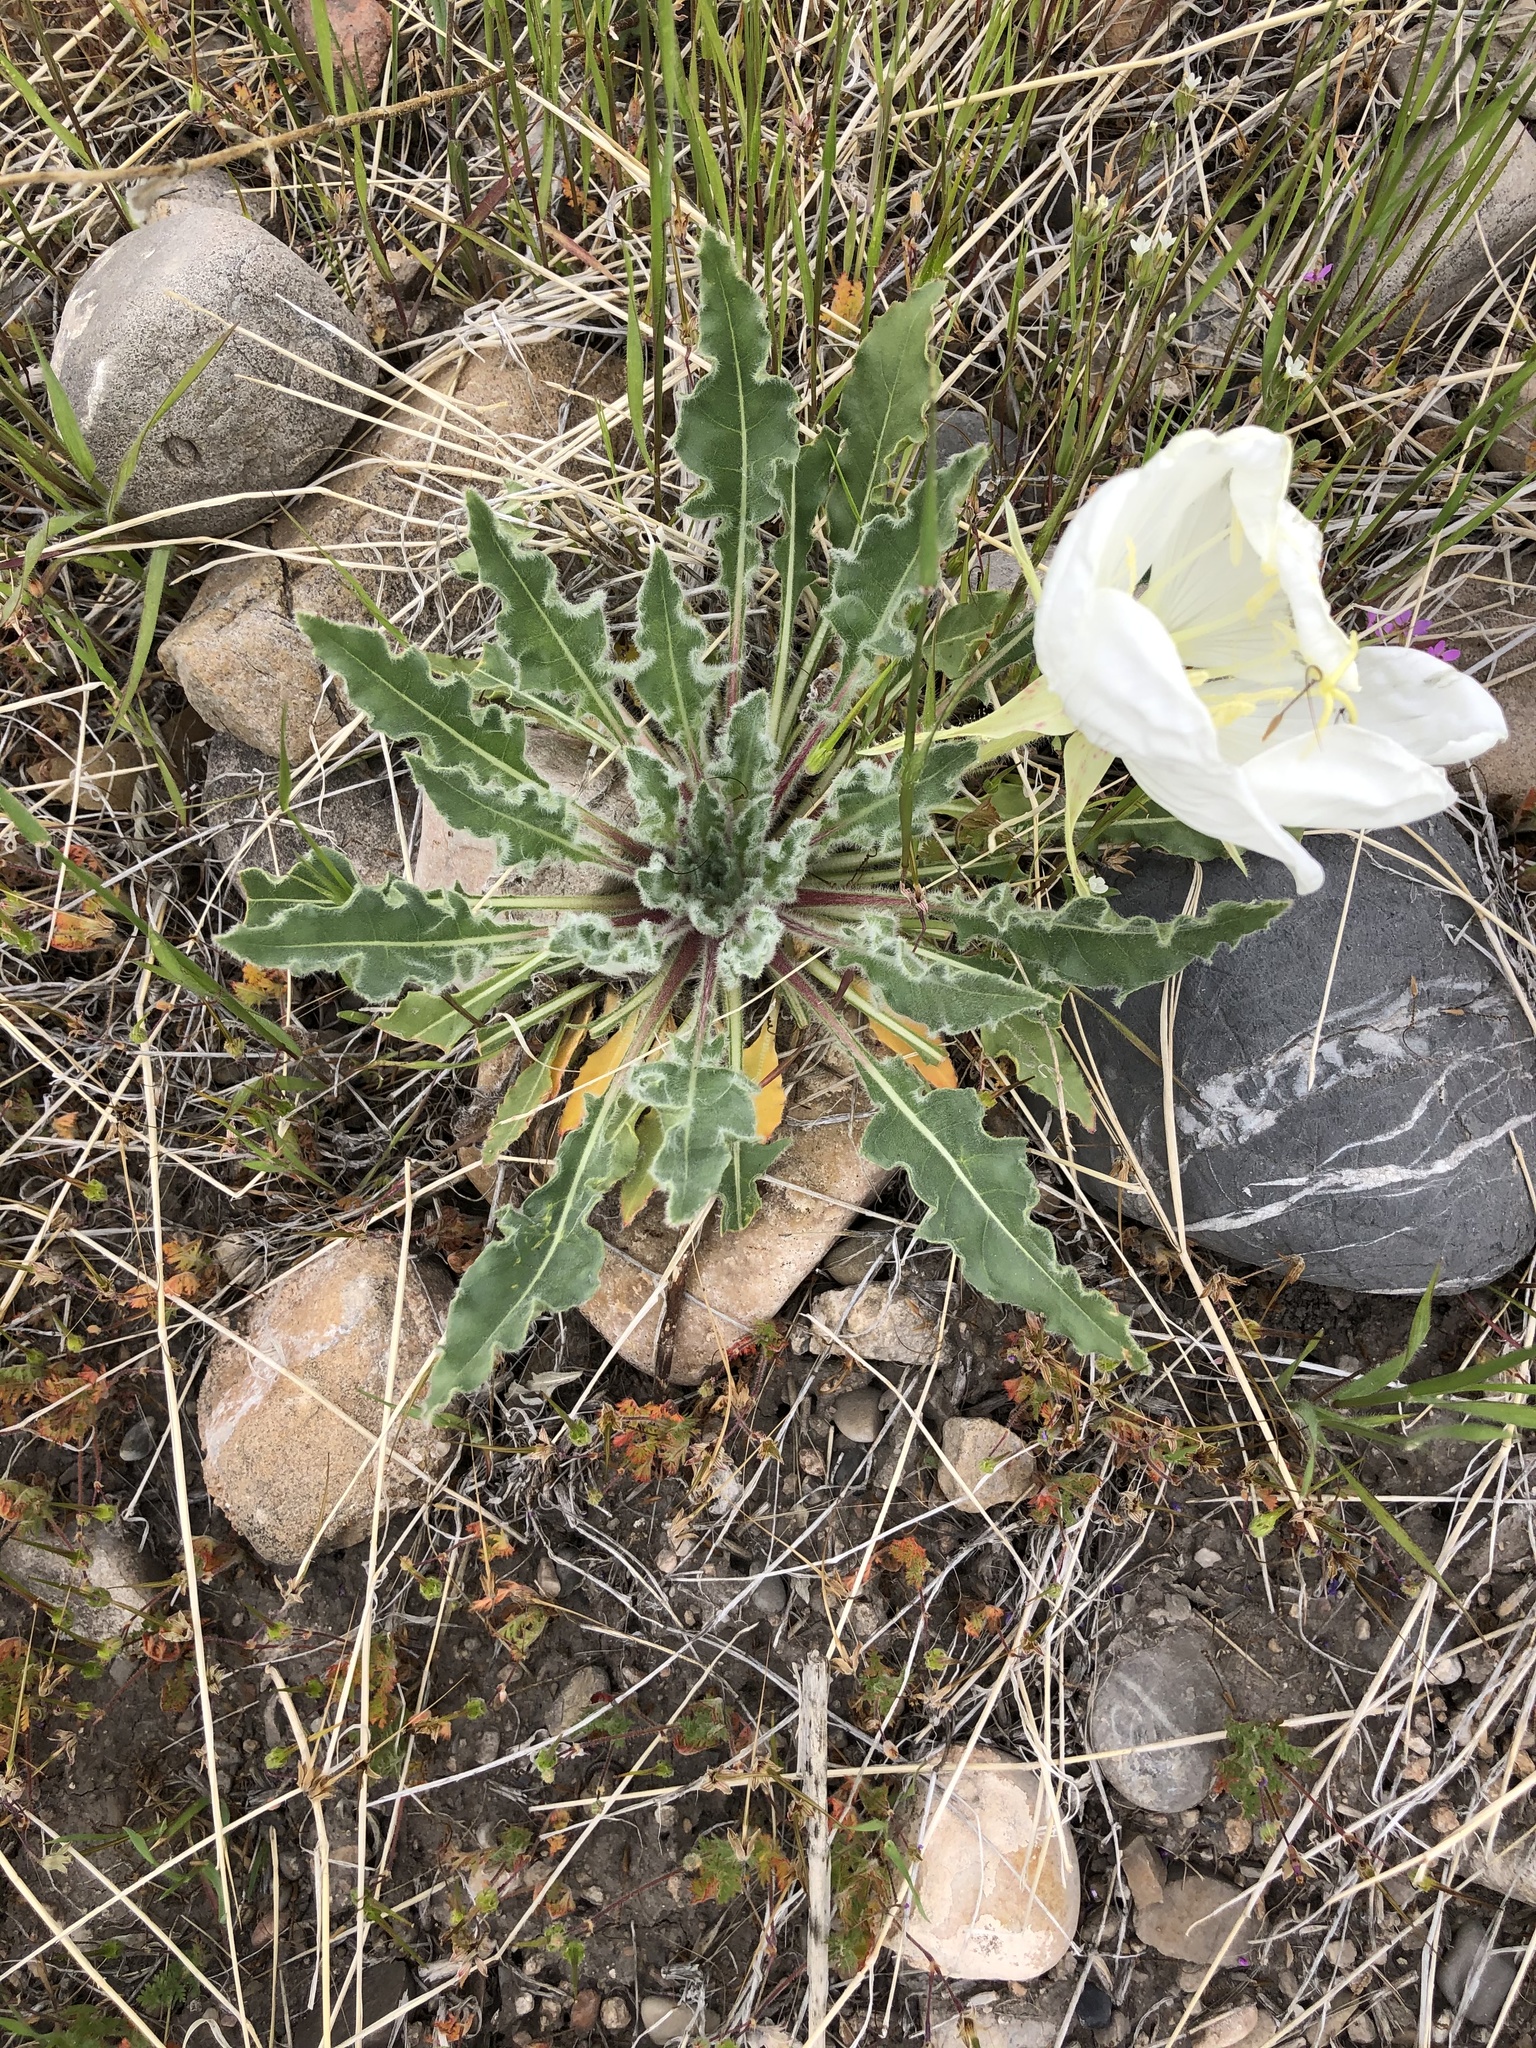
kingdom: Plantae
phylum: Tracheophyta
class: Magnoliopsida
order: Myrtales
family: Onagraceae
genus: Oenothera
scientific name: Oenothera cespitosa
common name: Tufted evening-primrose
